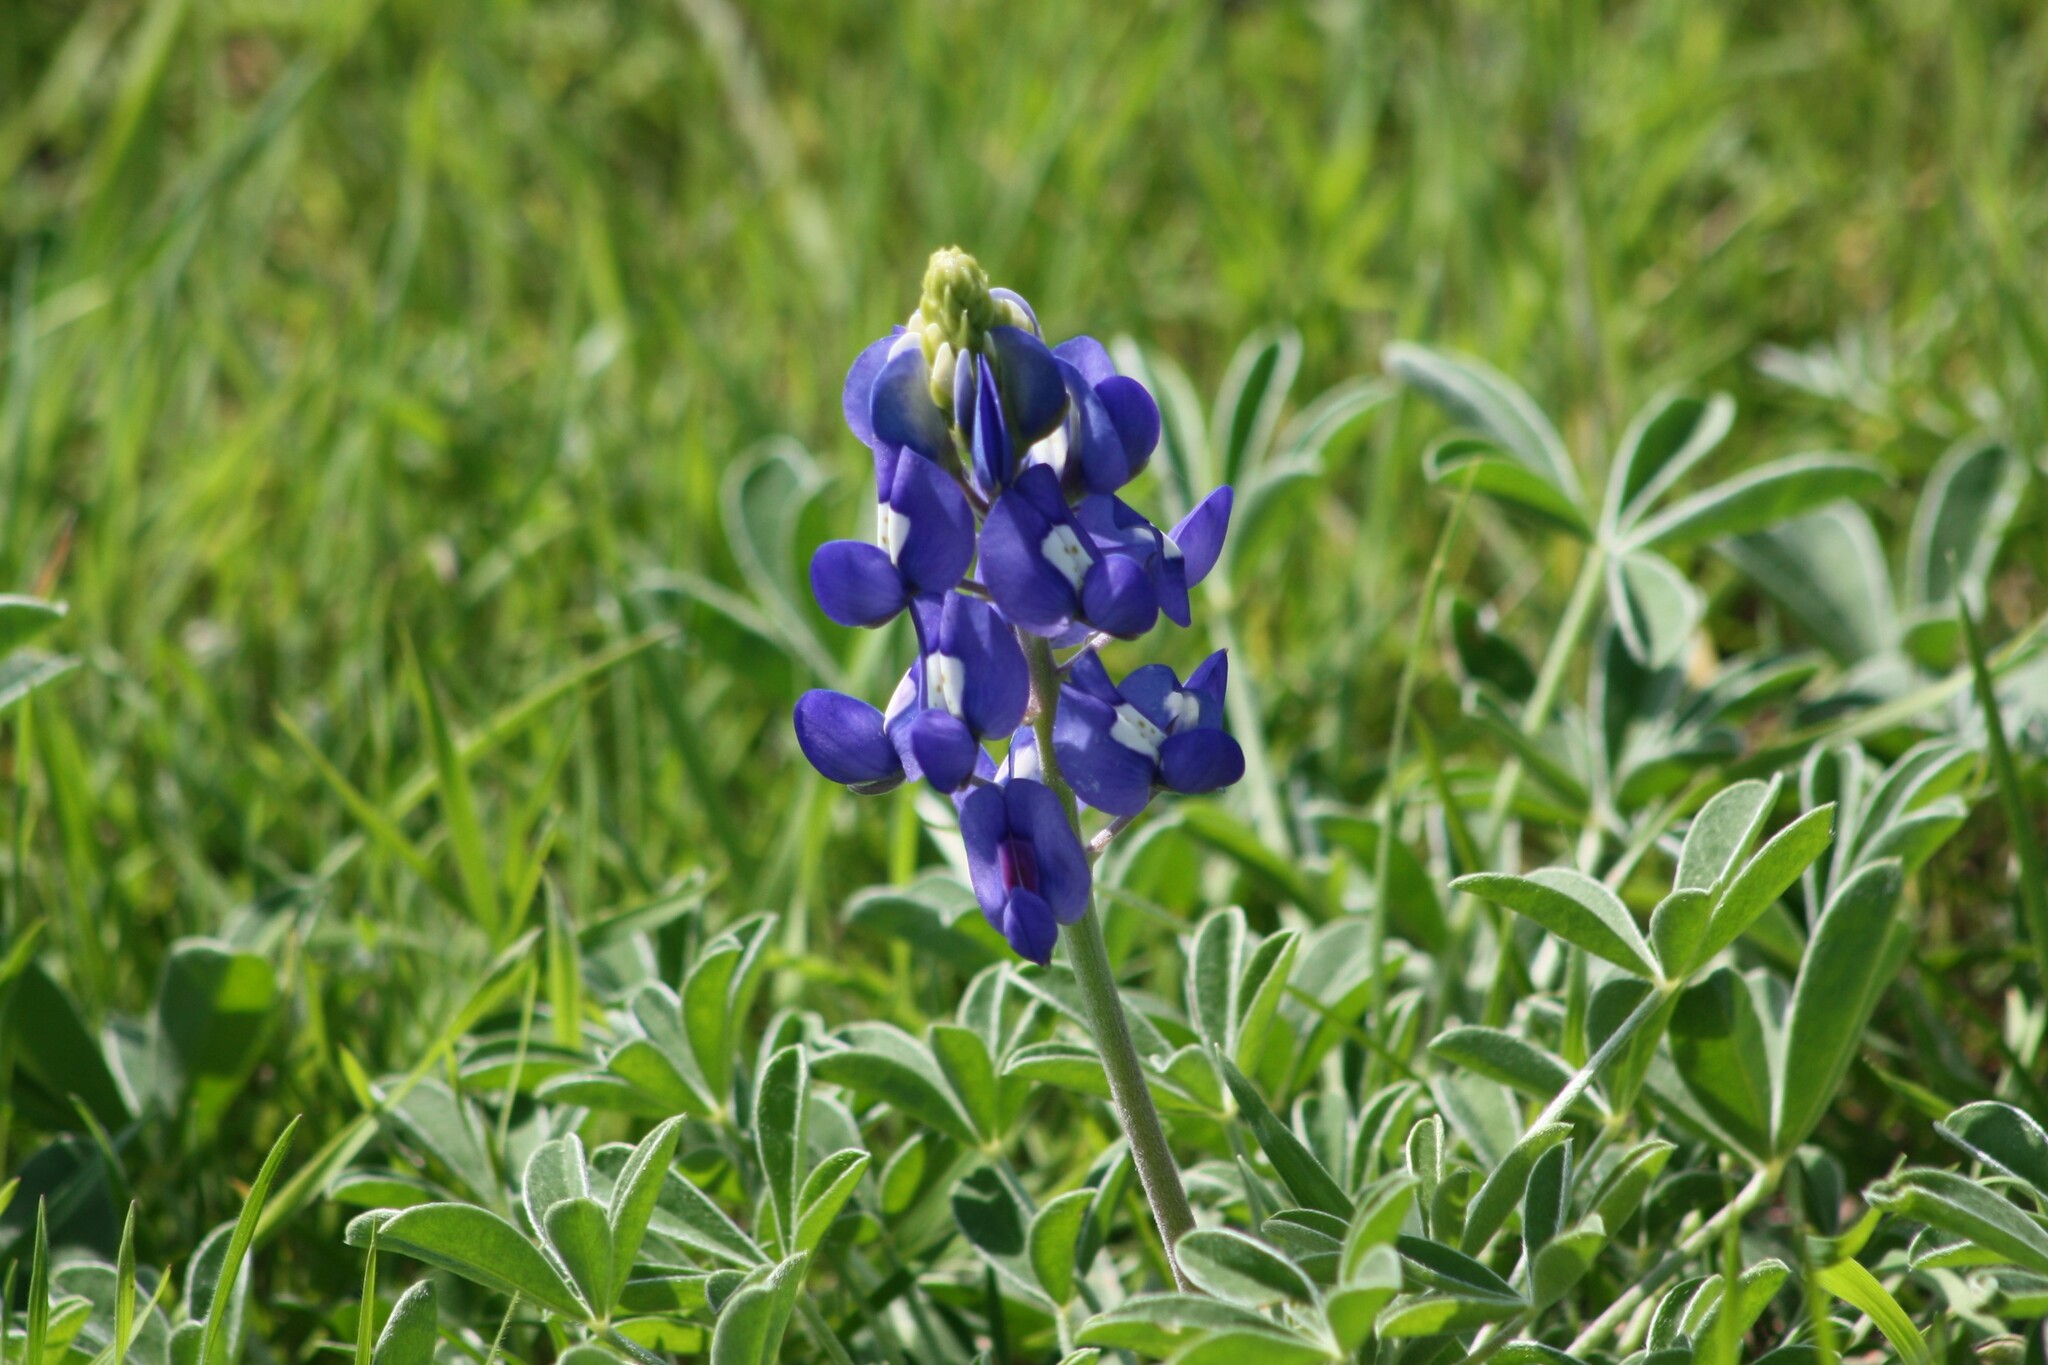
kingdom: Plantae
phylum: Tracheophyta
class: Magnoliopsida
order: Fabales
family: Fabaceae
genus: Lupinus
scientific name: Lupinus texensis
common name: Texas bluebonnet
